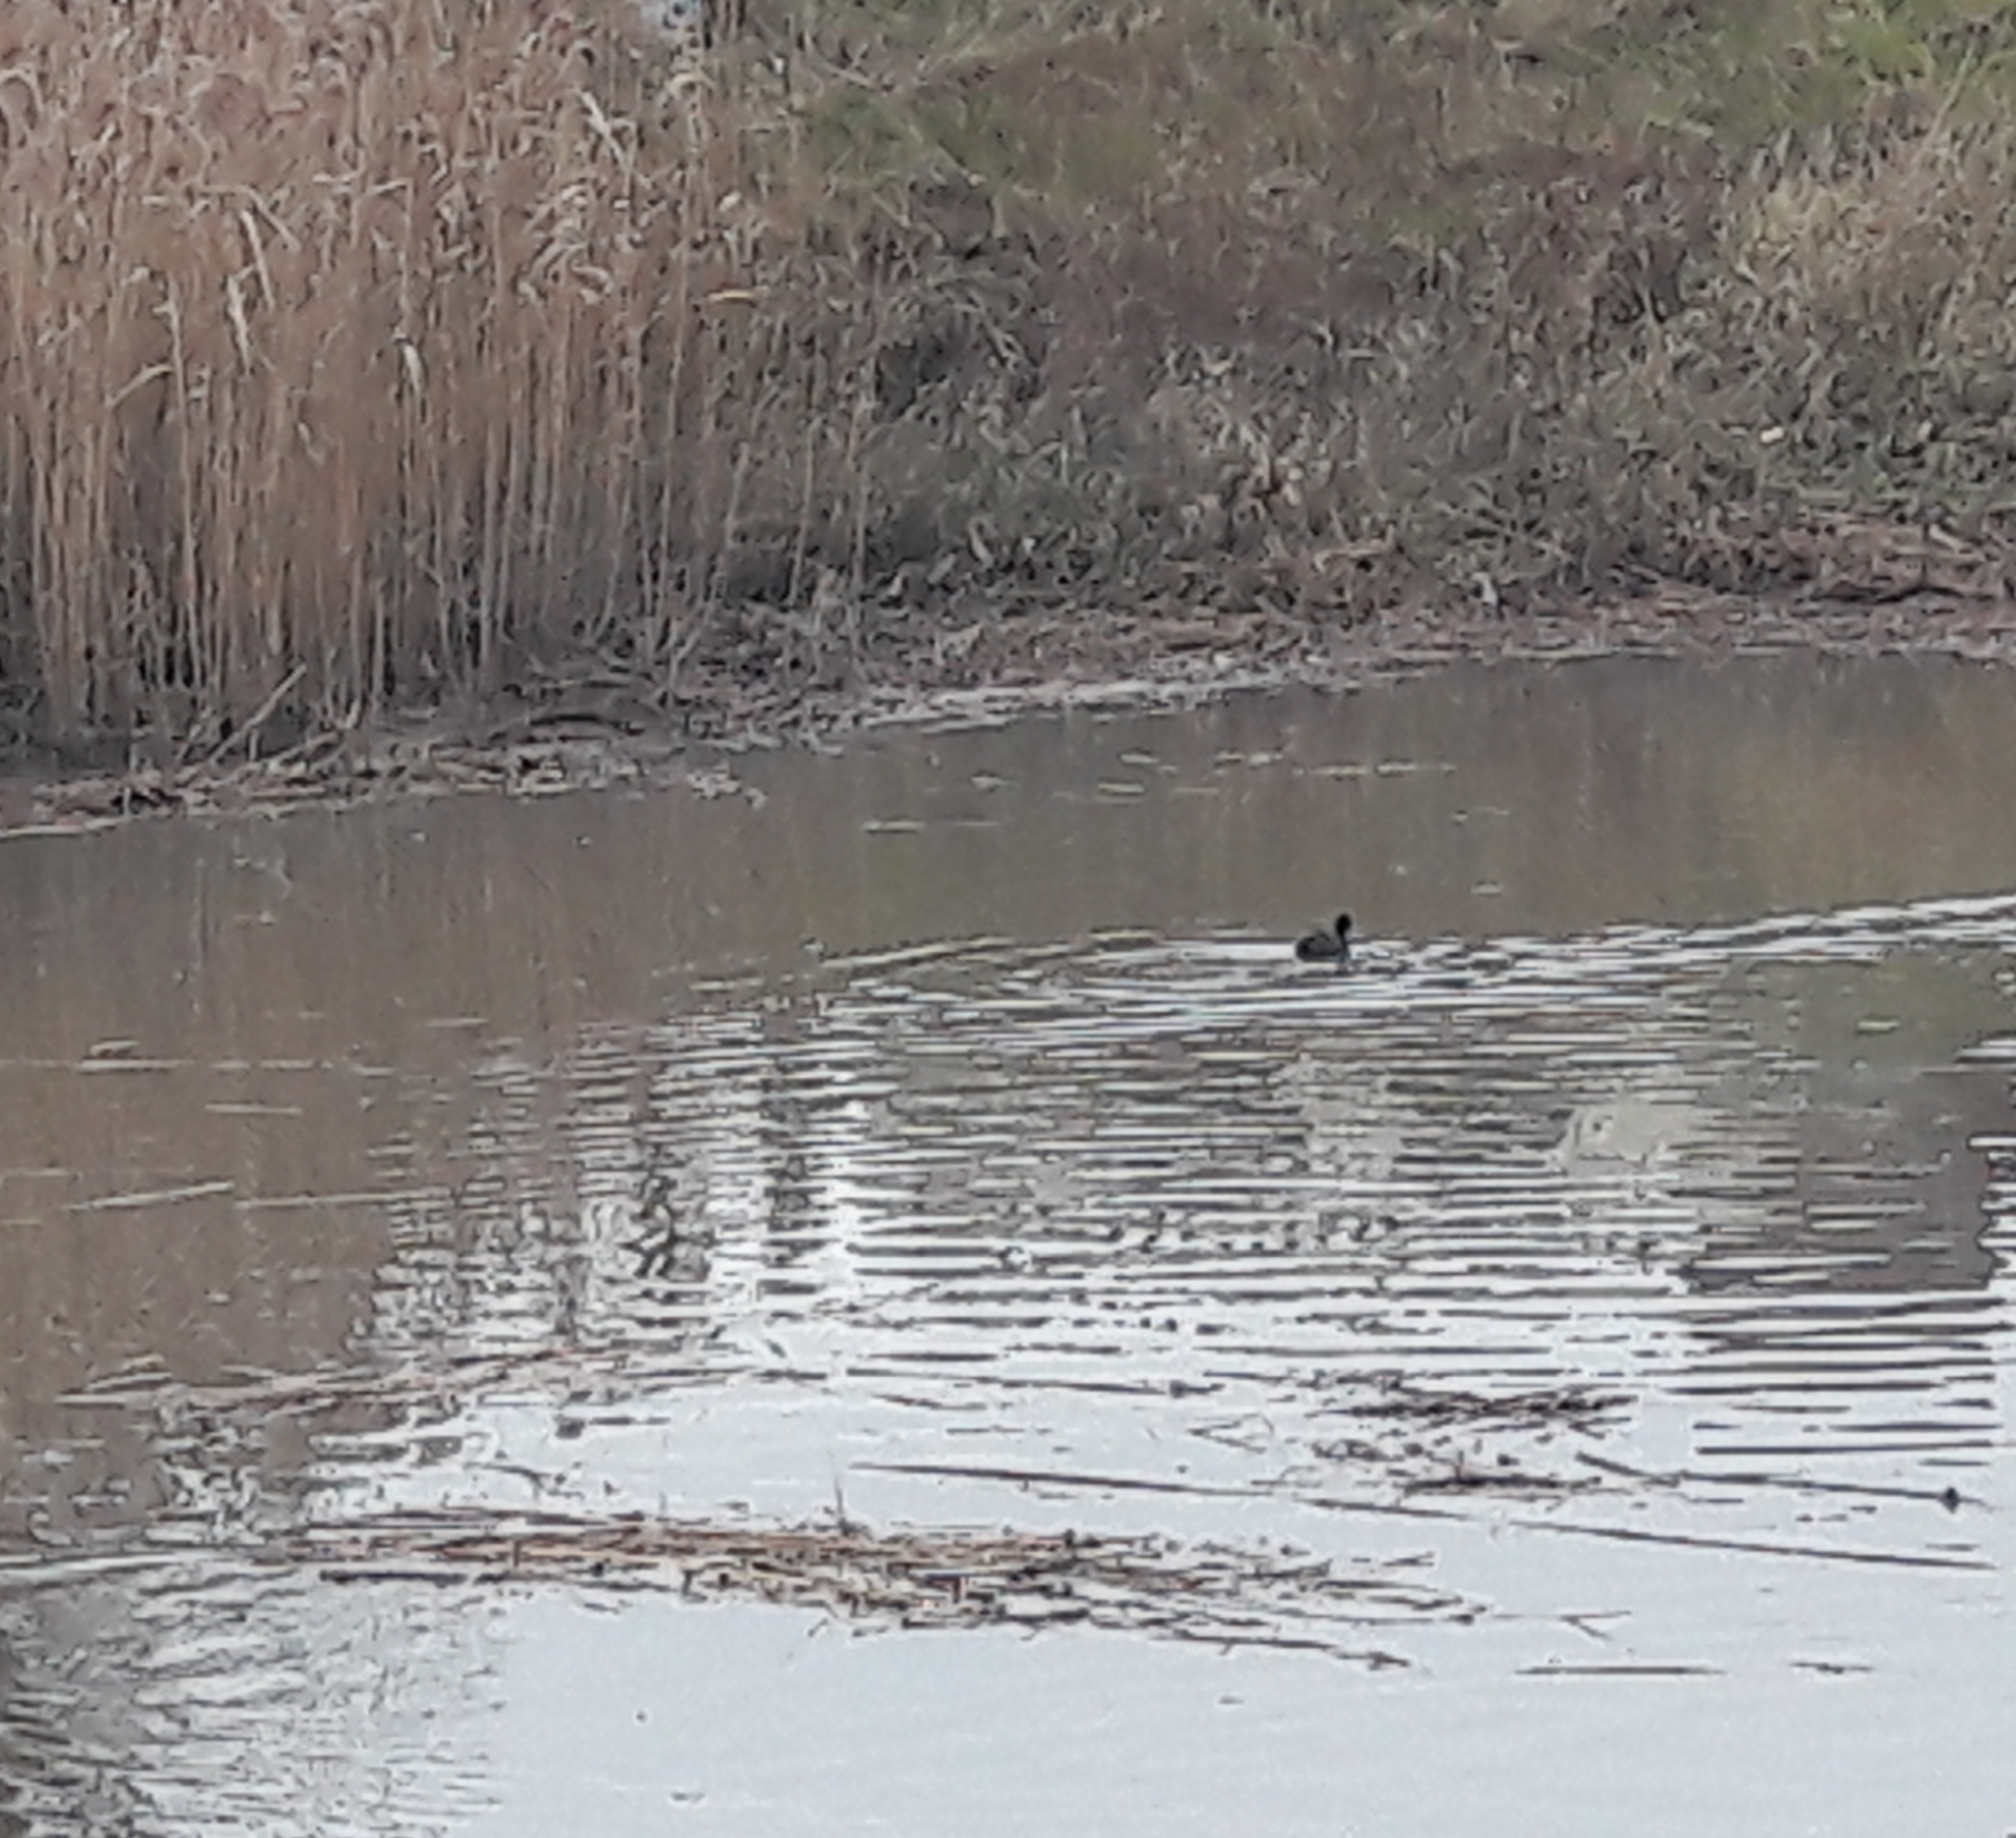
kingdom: Animalia
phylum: Chordata
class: Aves
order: Gruiformes
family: Rallidae
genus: Fulica
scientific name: Fulica atra
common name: Eurasian coot
